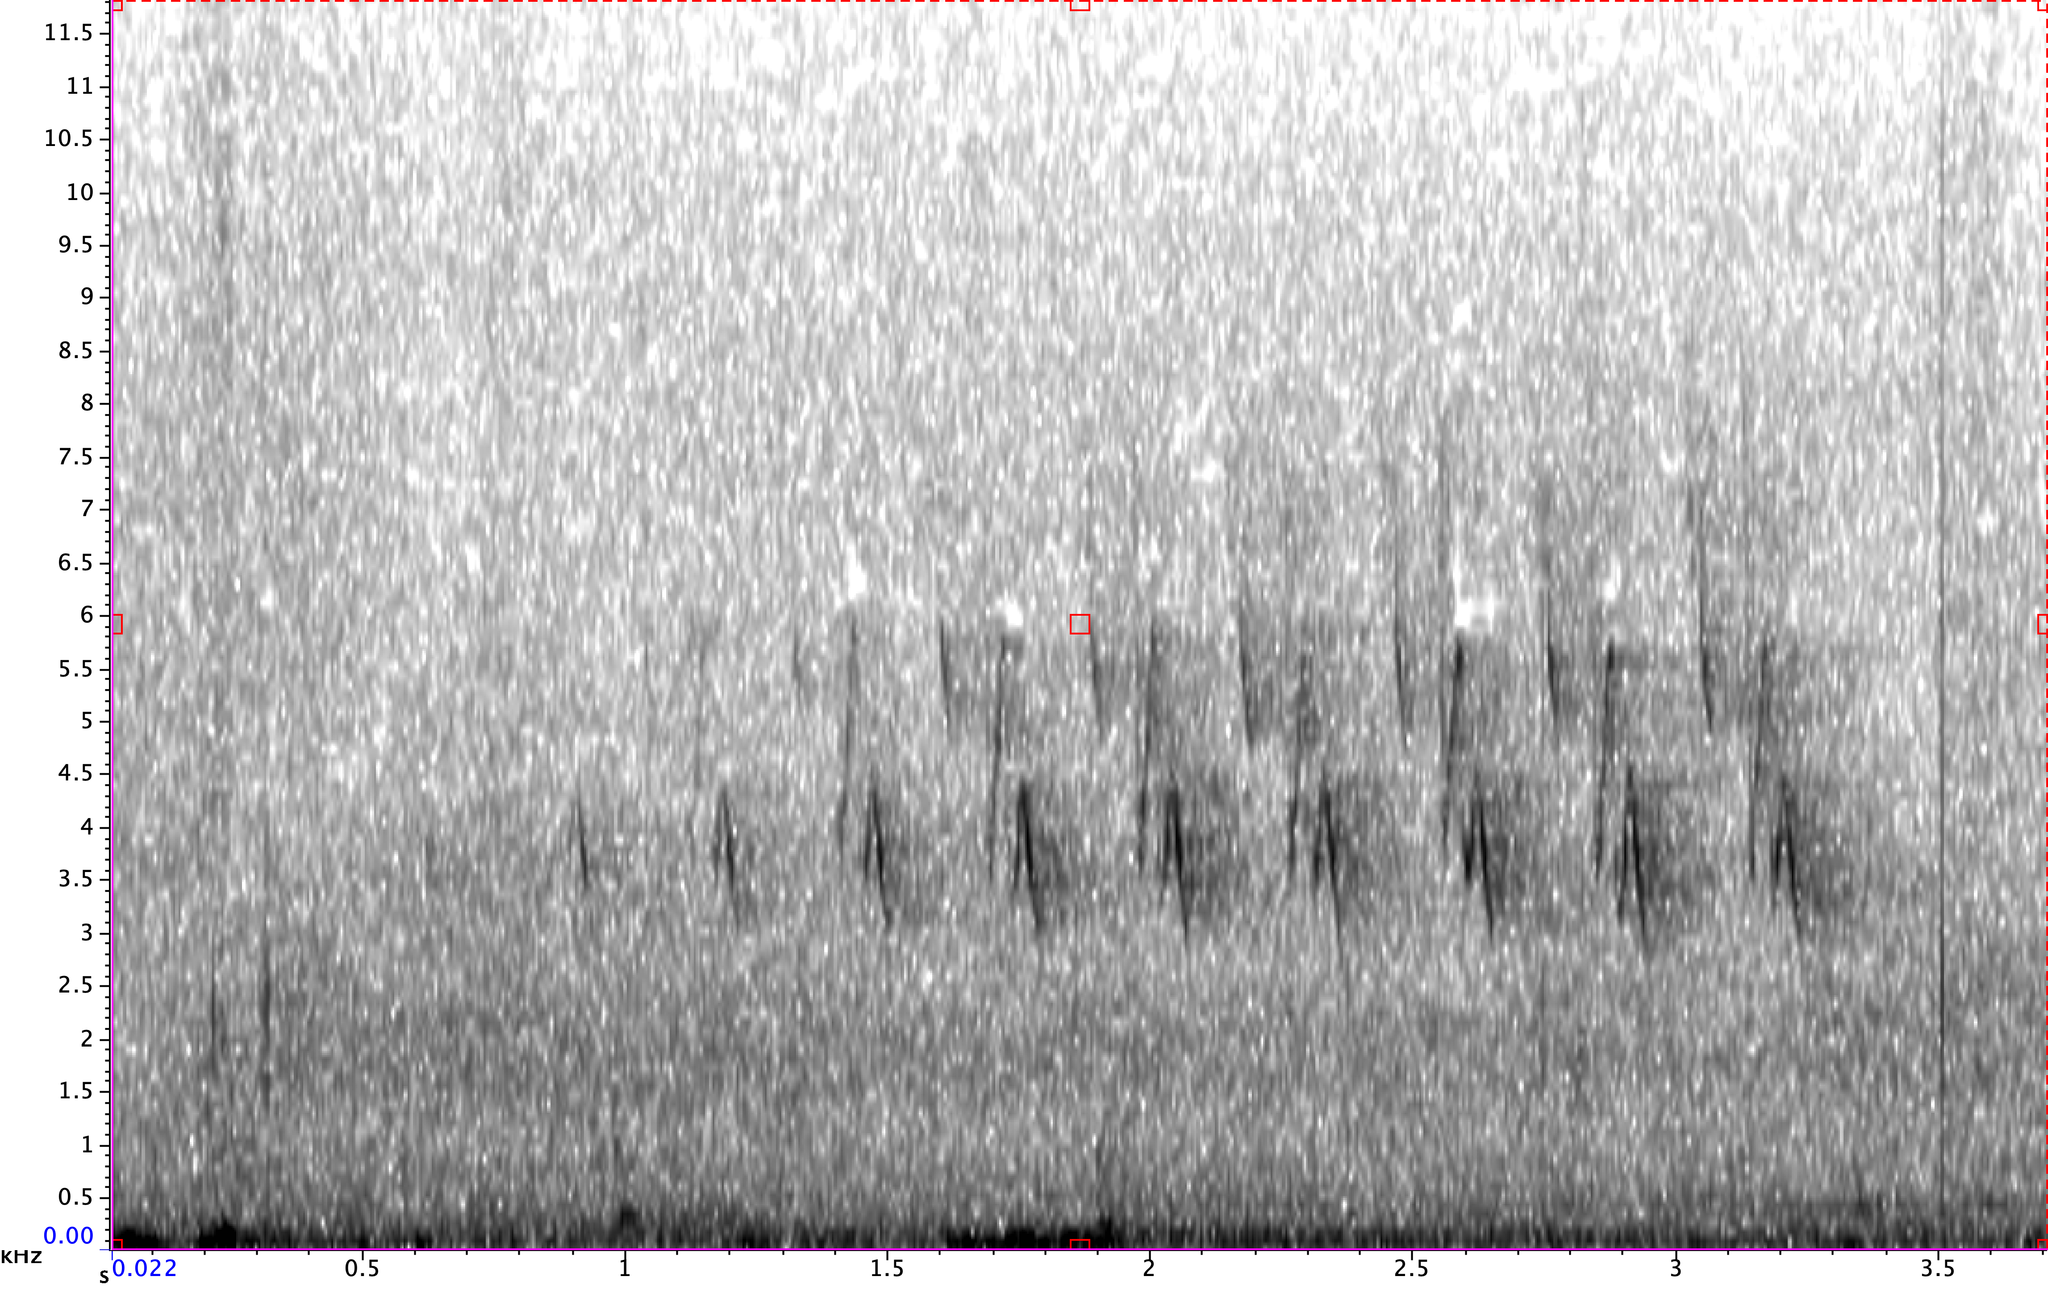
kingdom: Animalia
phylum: Chordata
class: Aves
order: Passeriformes
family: Parulidae
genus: Seiurus
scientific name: Seiurus aurocapilla
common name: Ovenbird
